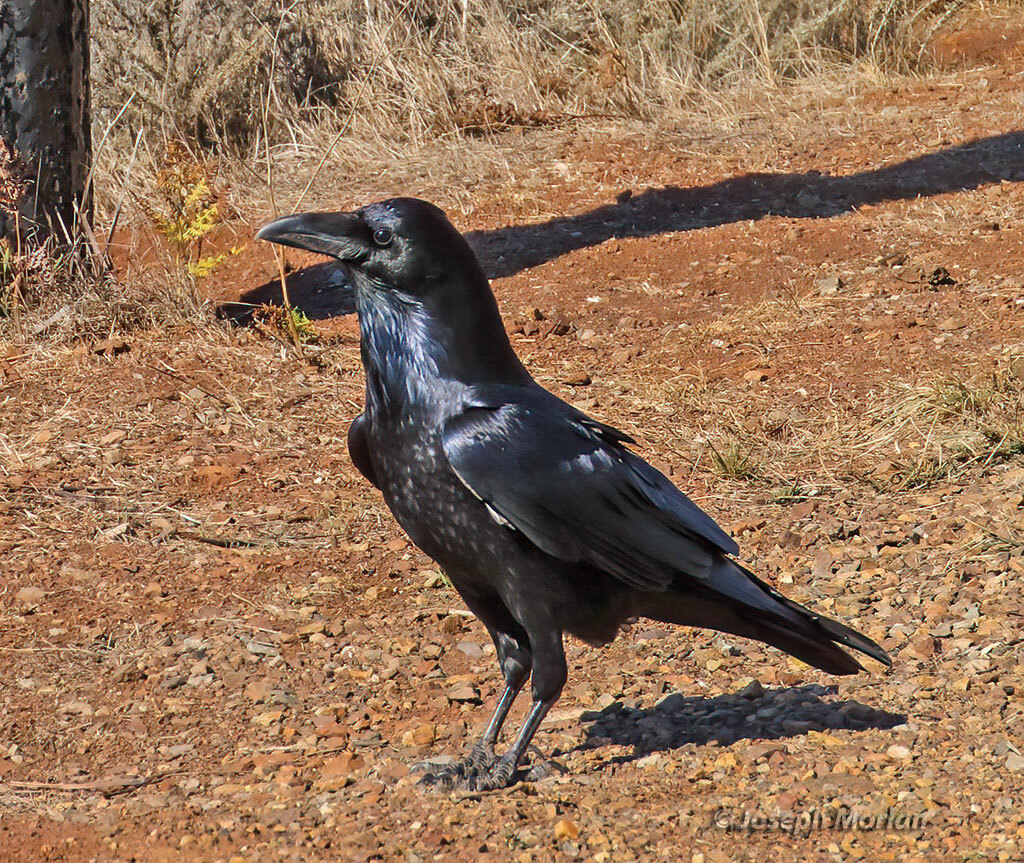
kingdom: Animalia
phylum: Chordata
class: Aves
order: Passeriformes
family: Corvidae
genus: Corvus
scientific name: Corvus corax
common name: Common raven
